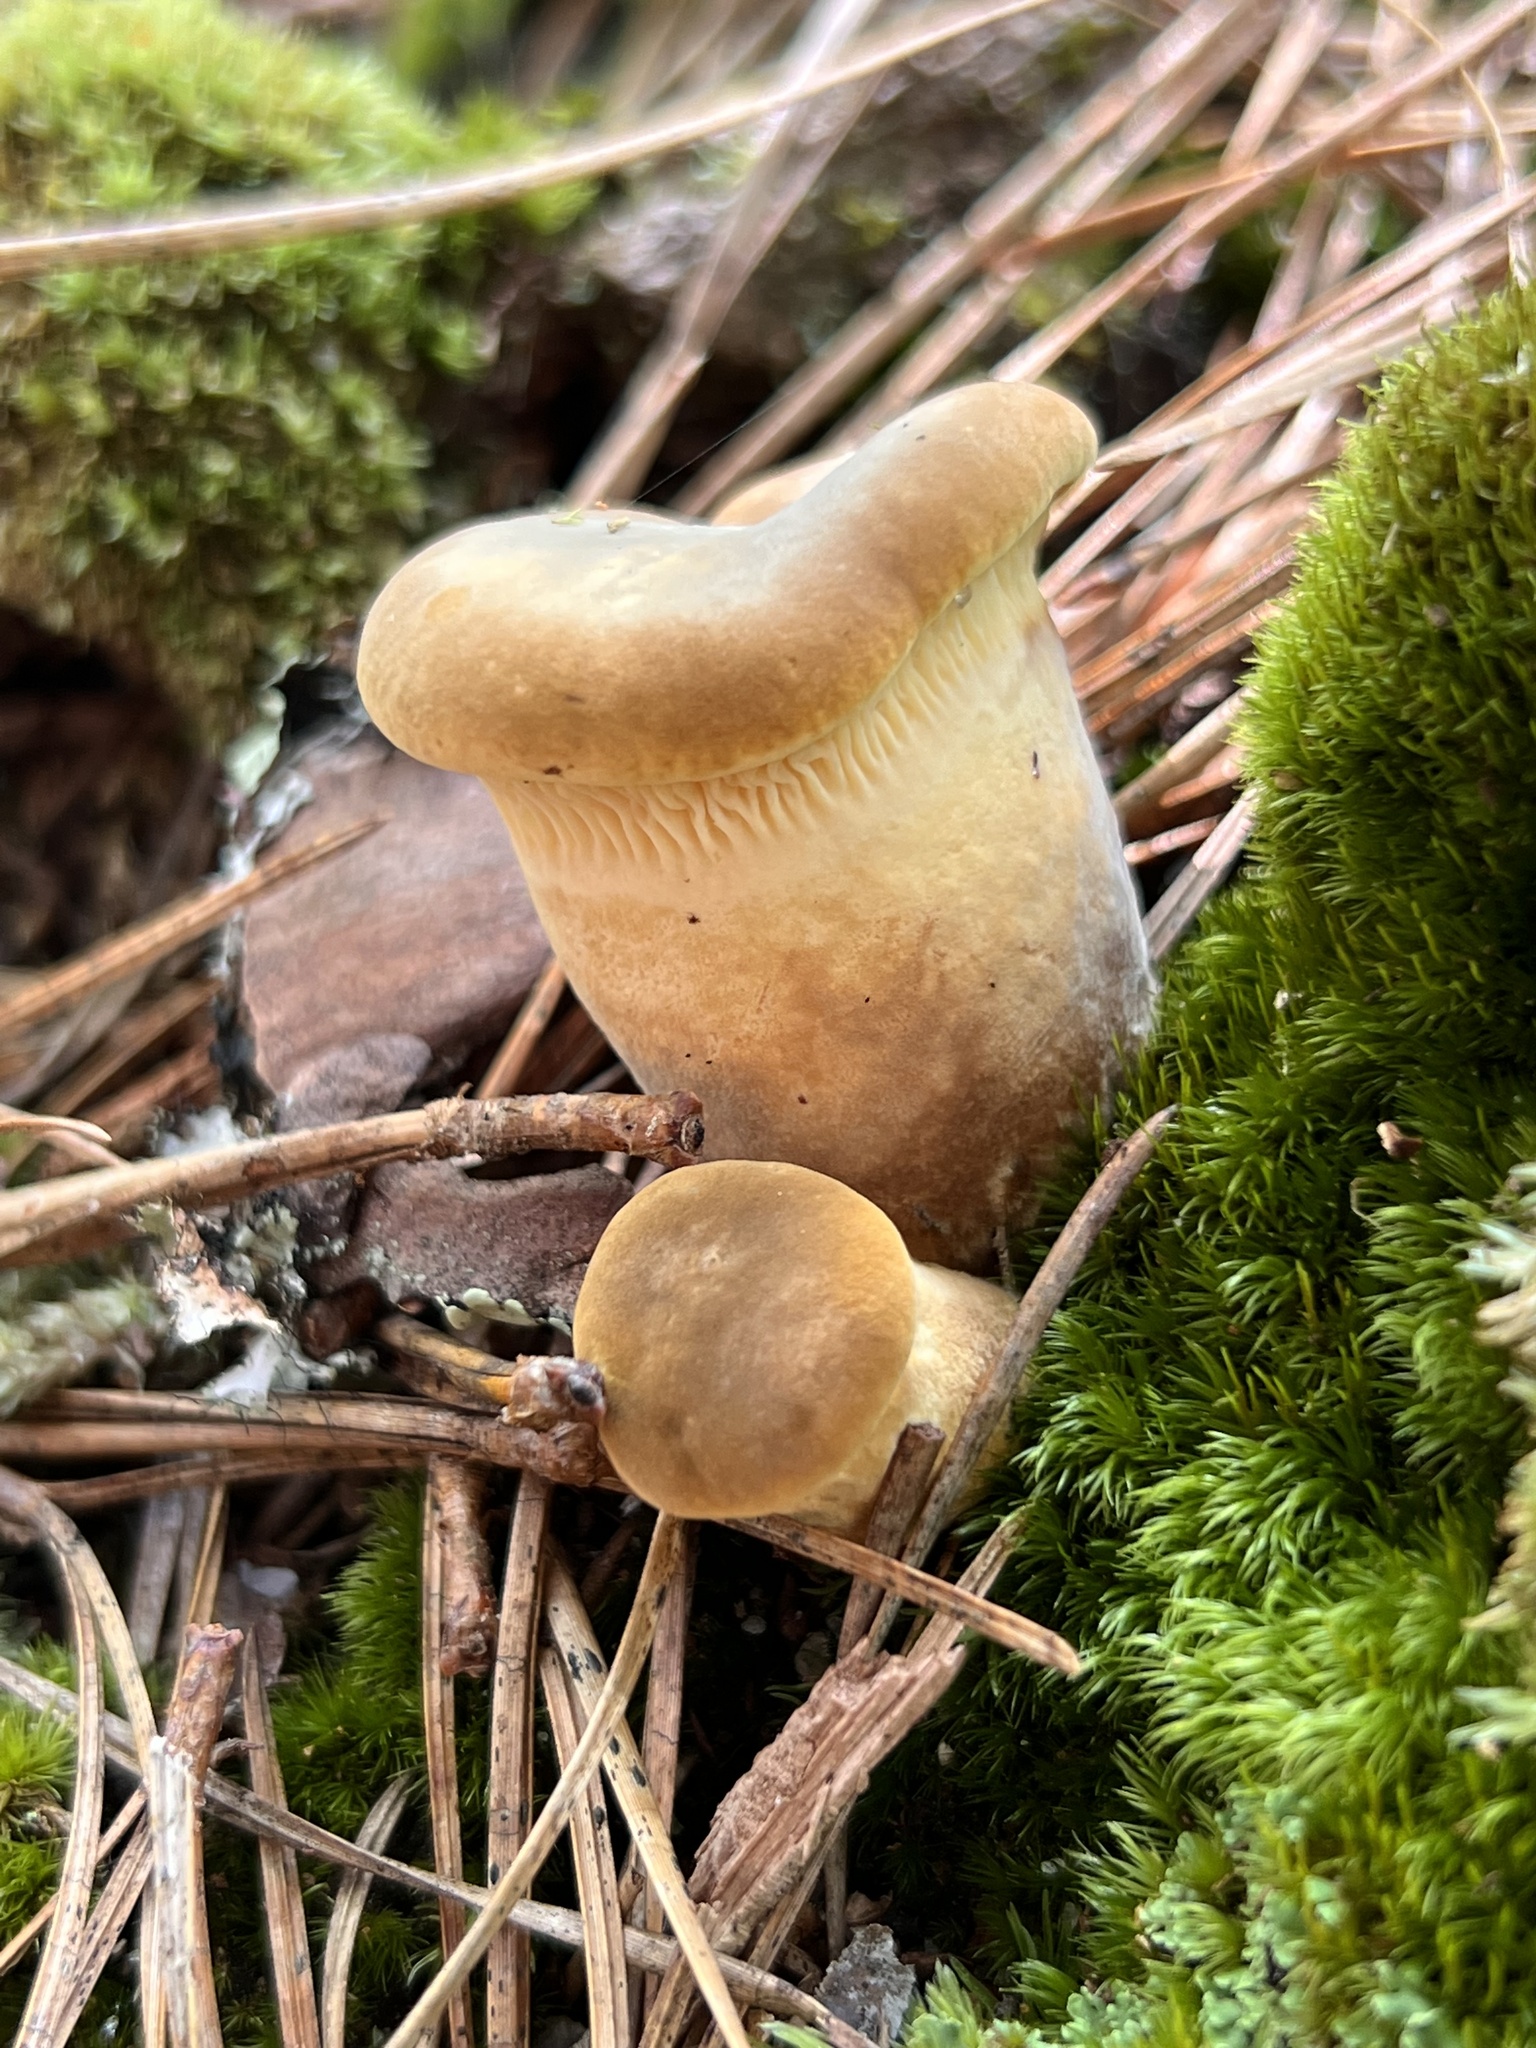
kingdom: Fungi
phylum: Basidiomycota
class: Agaricomycetes
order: Boletales
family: Tapinellaceae
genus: Tapinella
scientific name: Tapinella atrotomentosa
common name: Velvet rollrim
